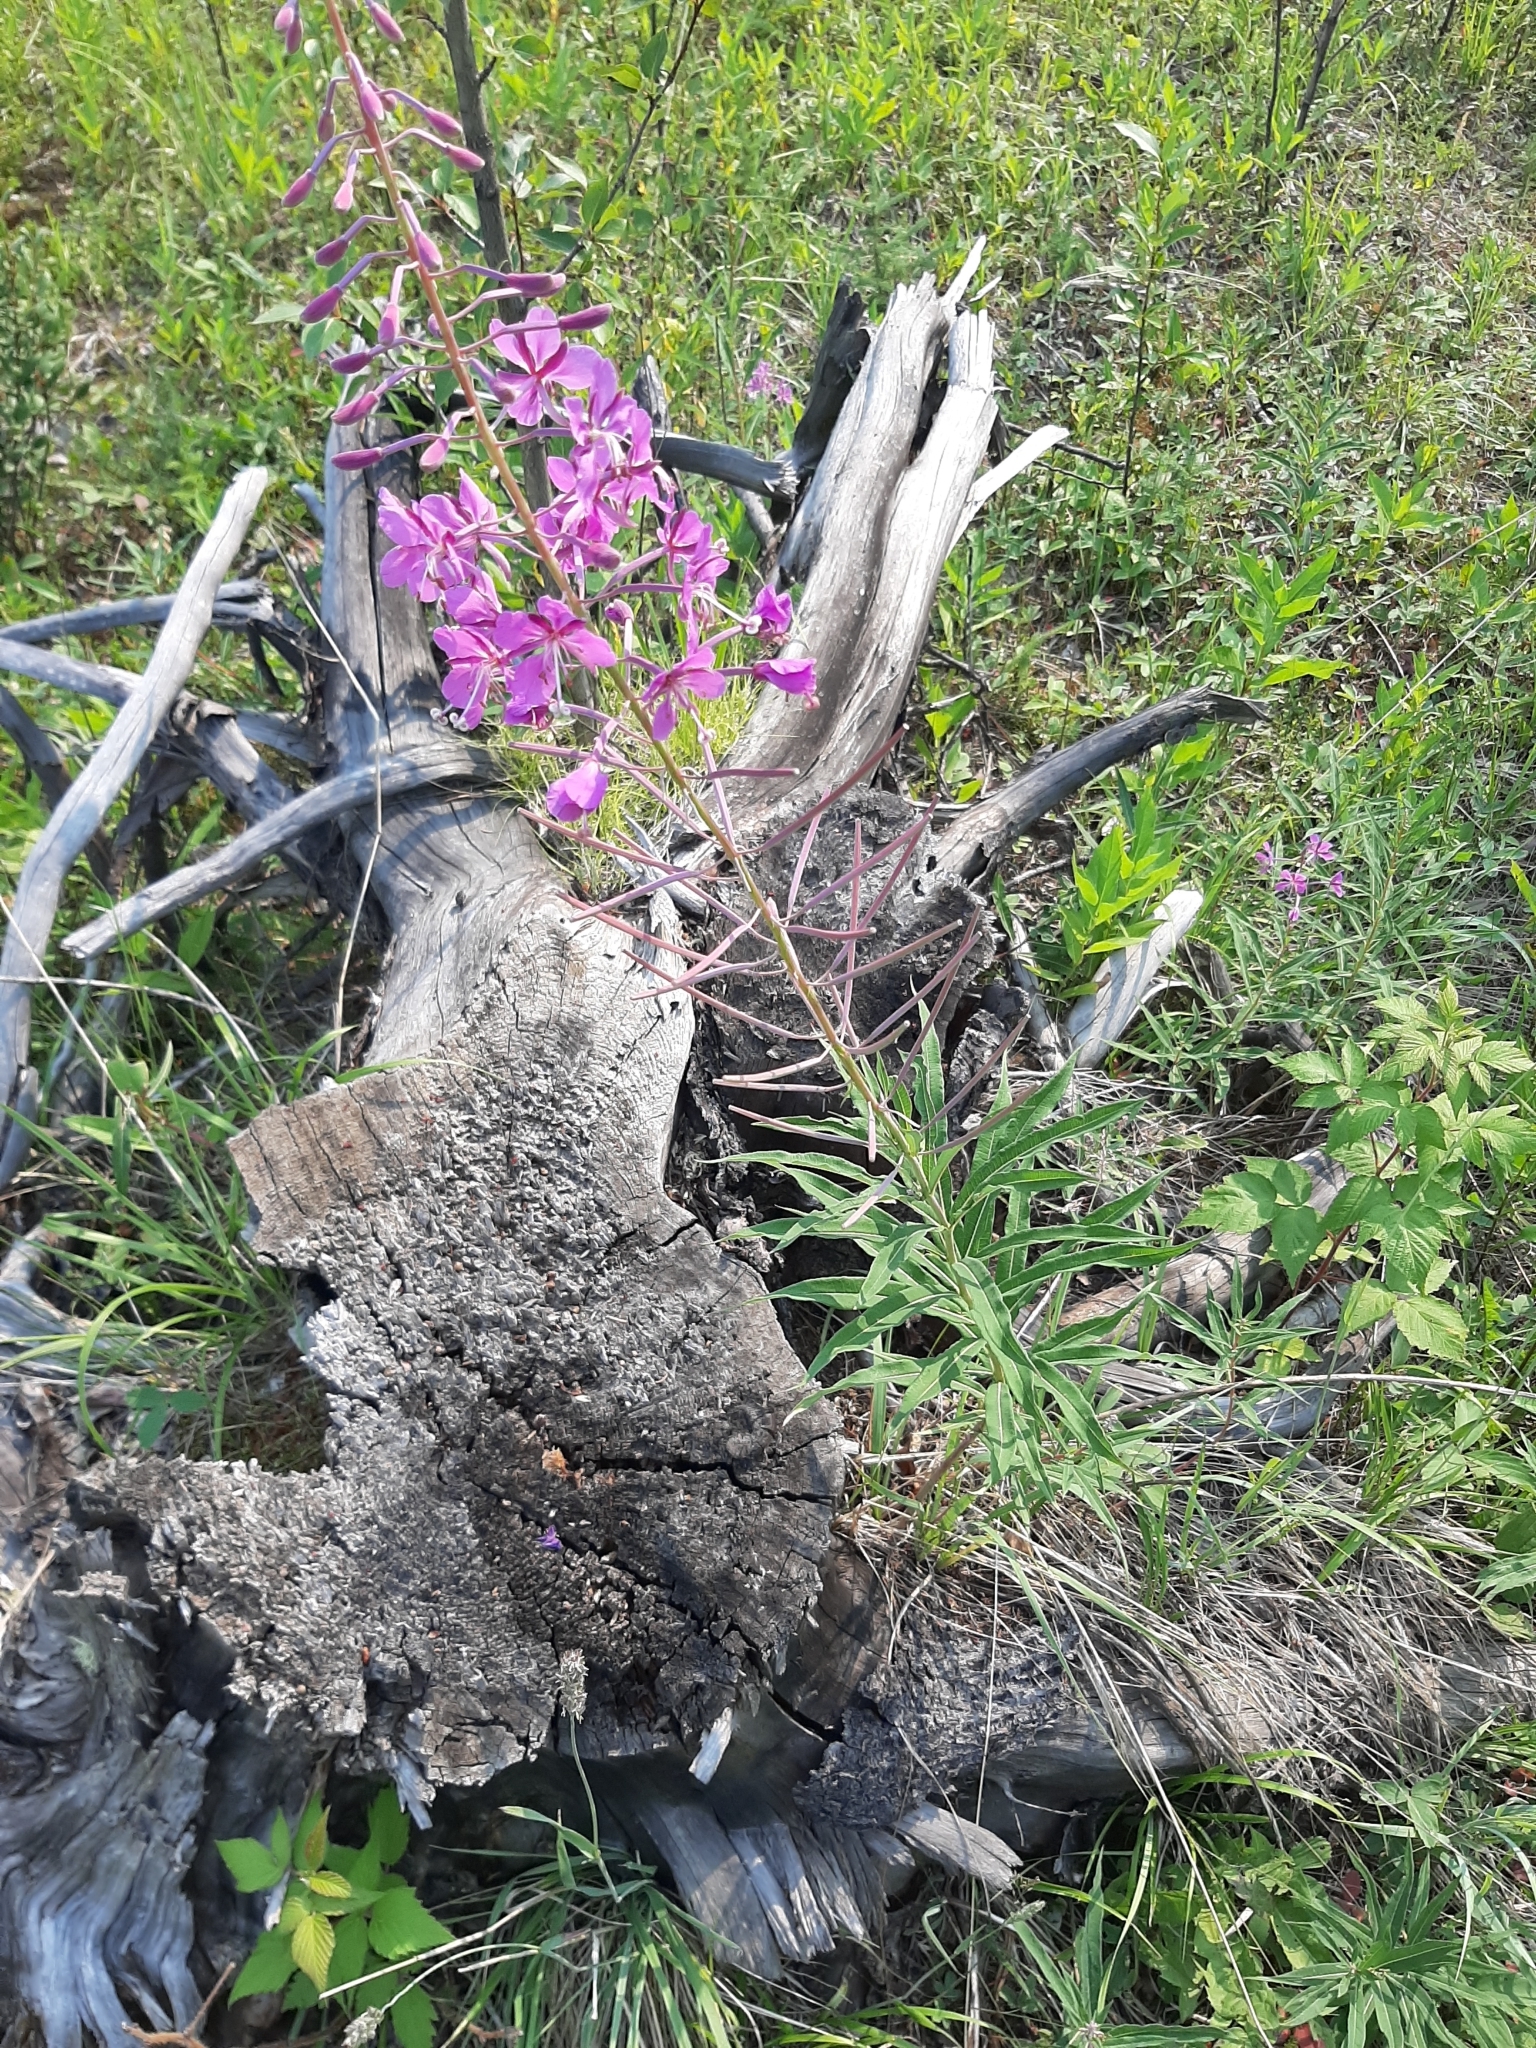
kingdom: Plantae
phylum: Tracheophyta
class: Magnoliopsida
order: Myrtales
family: Onagraceae
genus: Chamaenerion
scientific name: Chamaenerion angustifolium
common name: Fireweed
